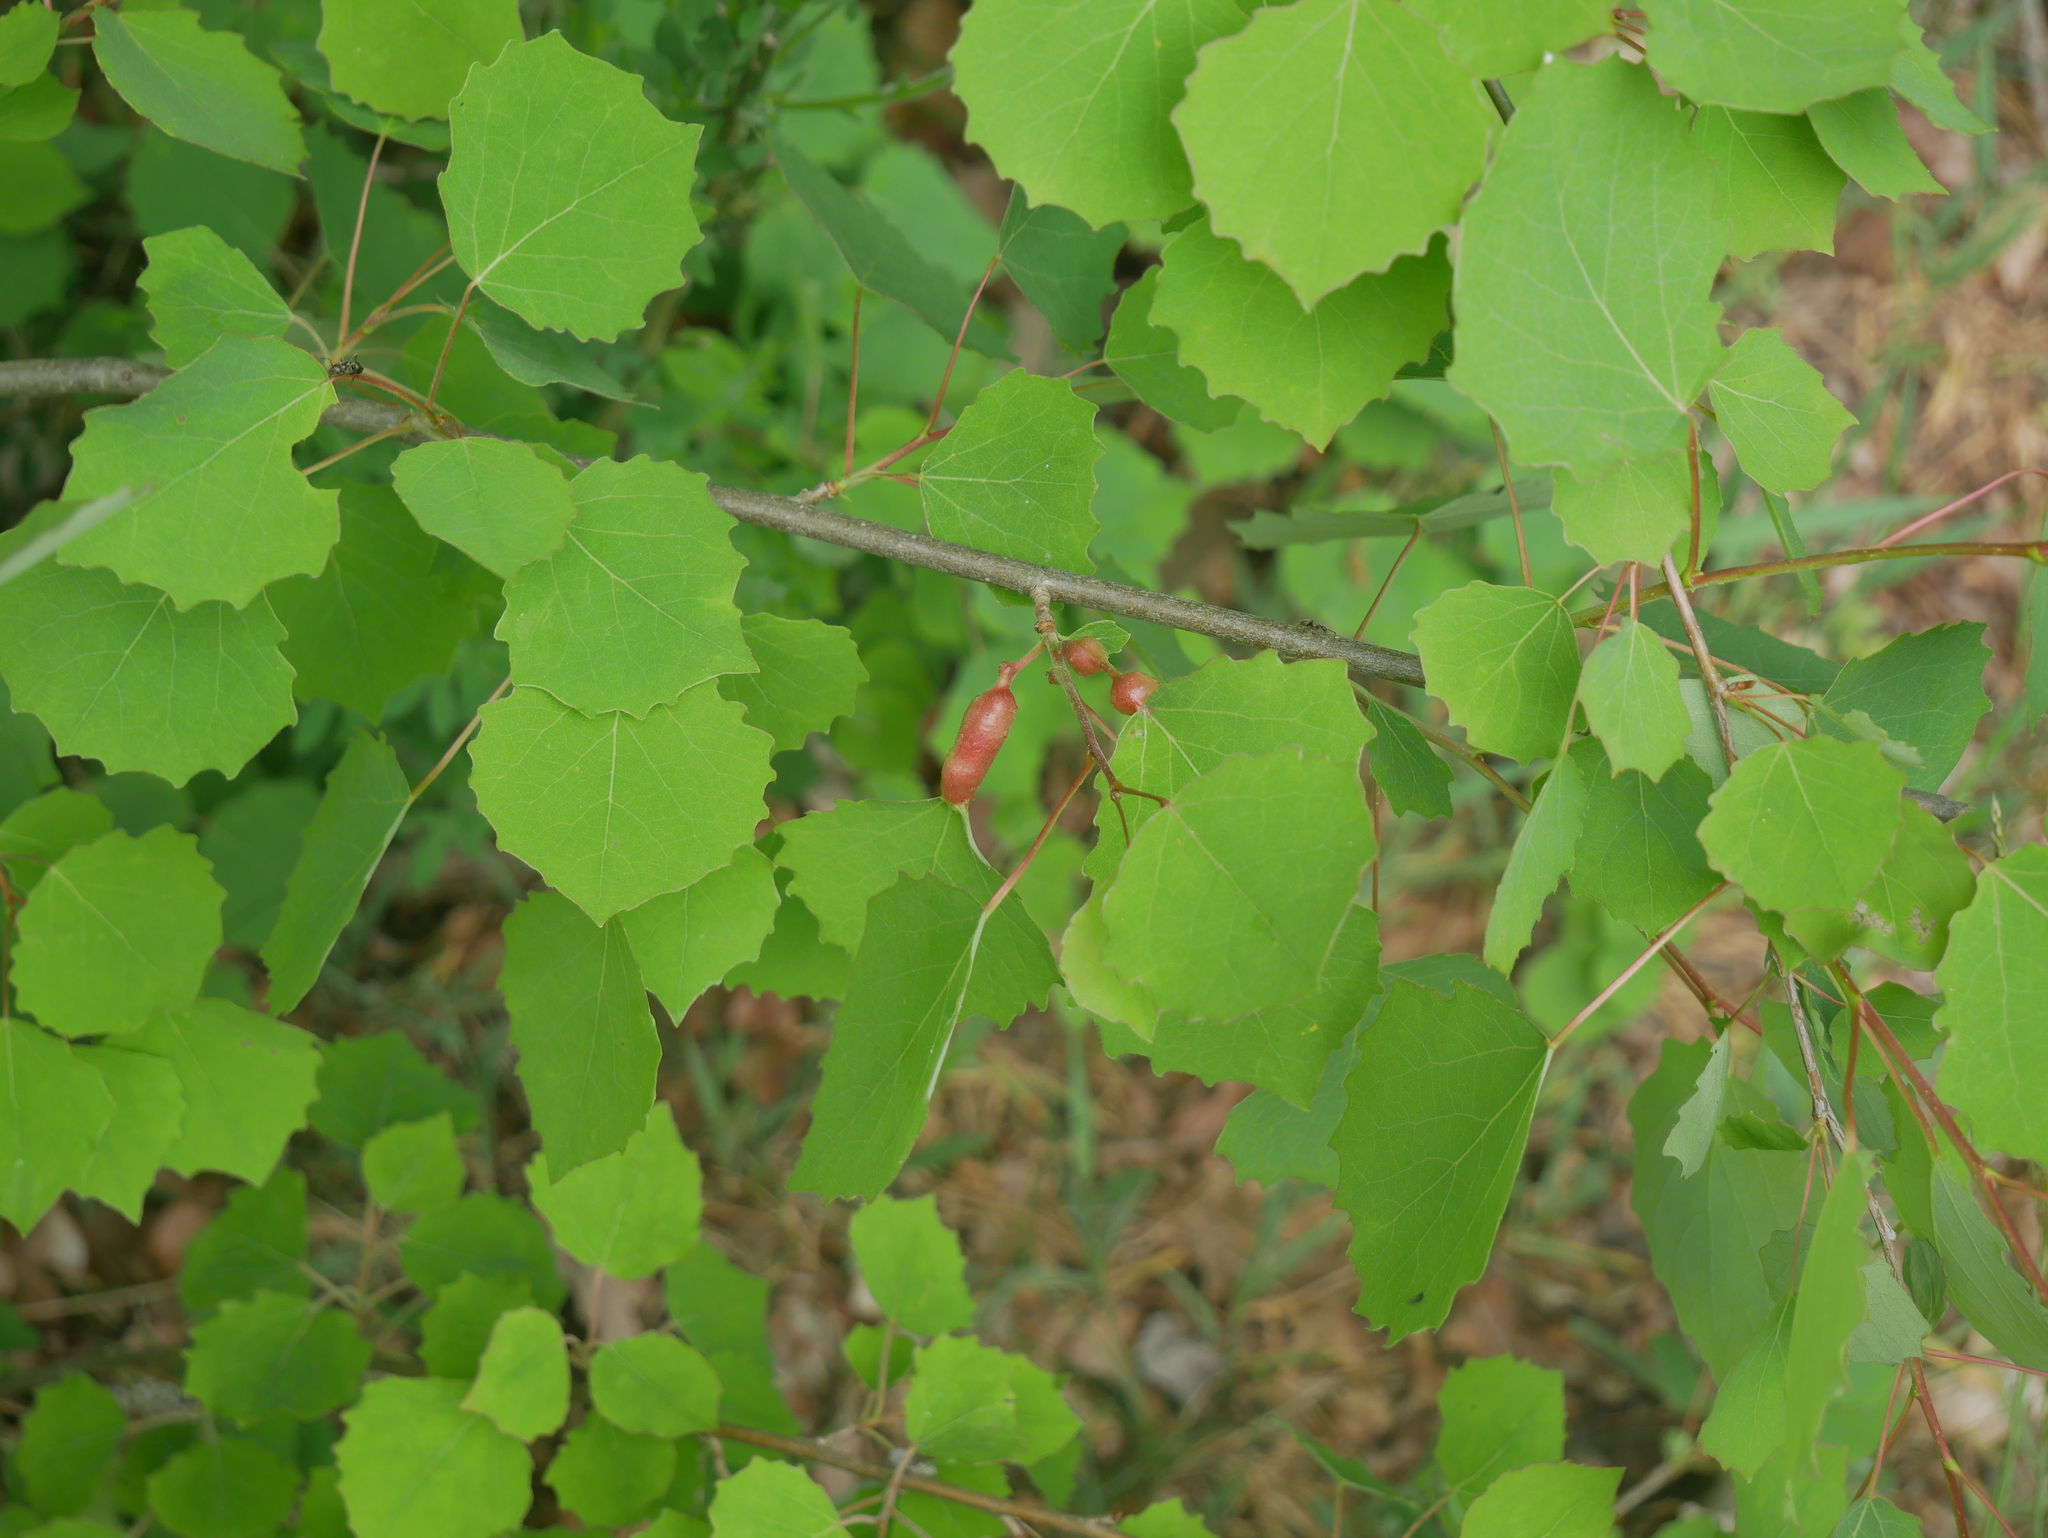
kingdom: Animalia
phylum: Arthropoda
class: Insecta
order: Diptera
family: Cecidomyiidae
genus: Contarinia
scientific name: Contarinia petioli
